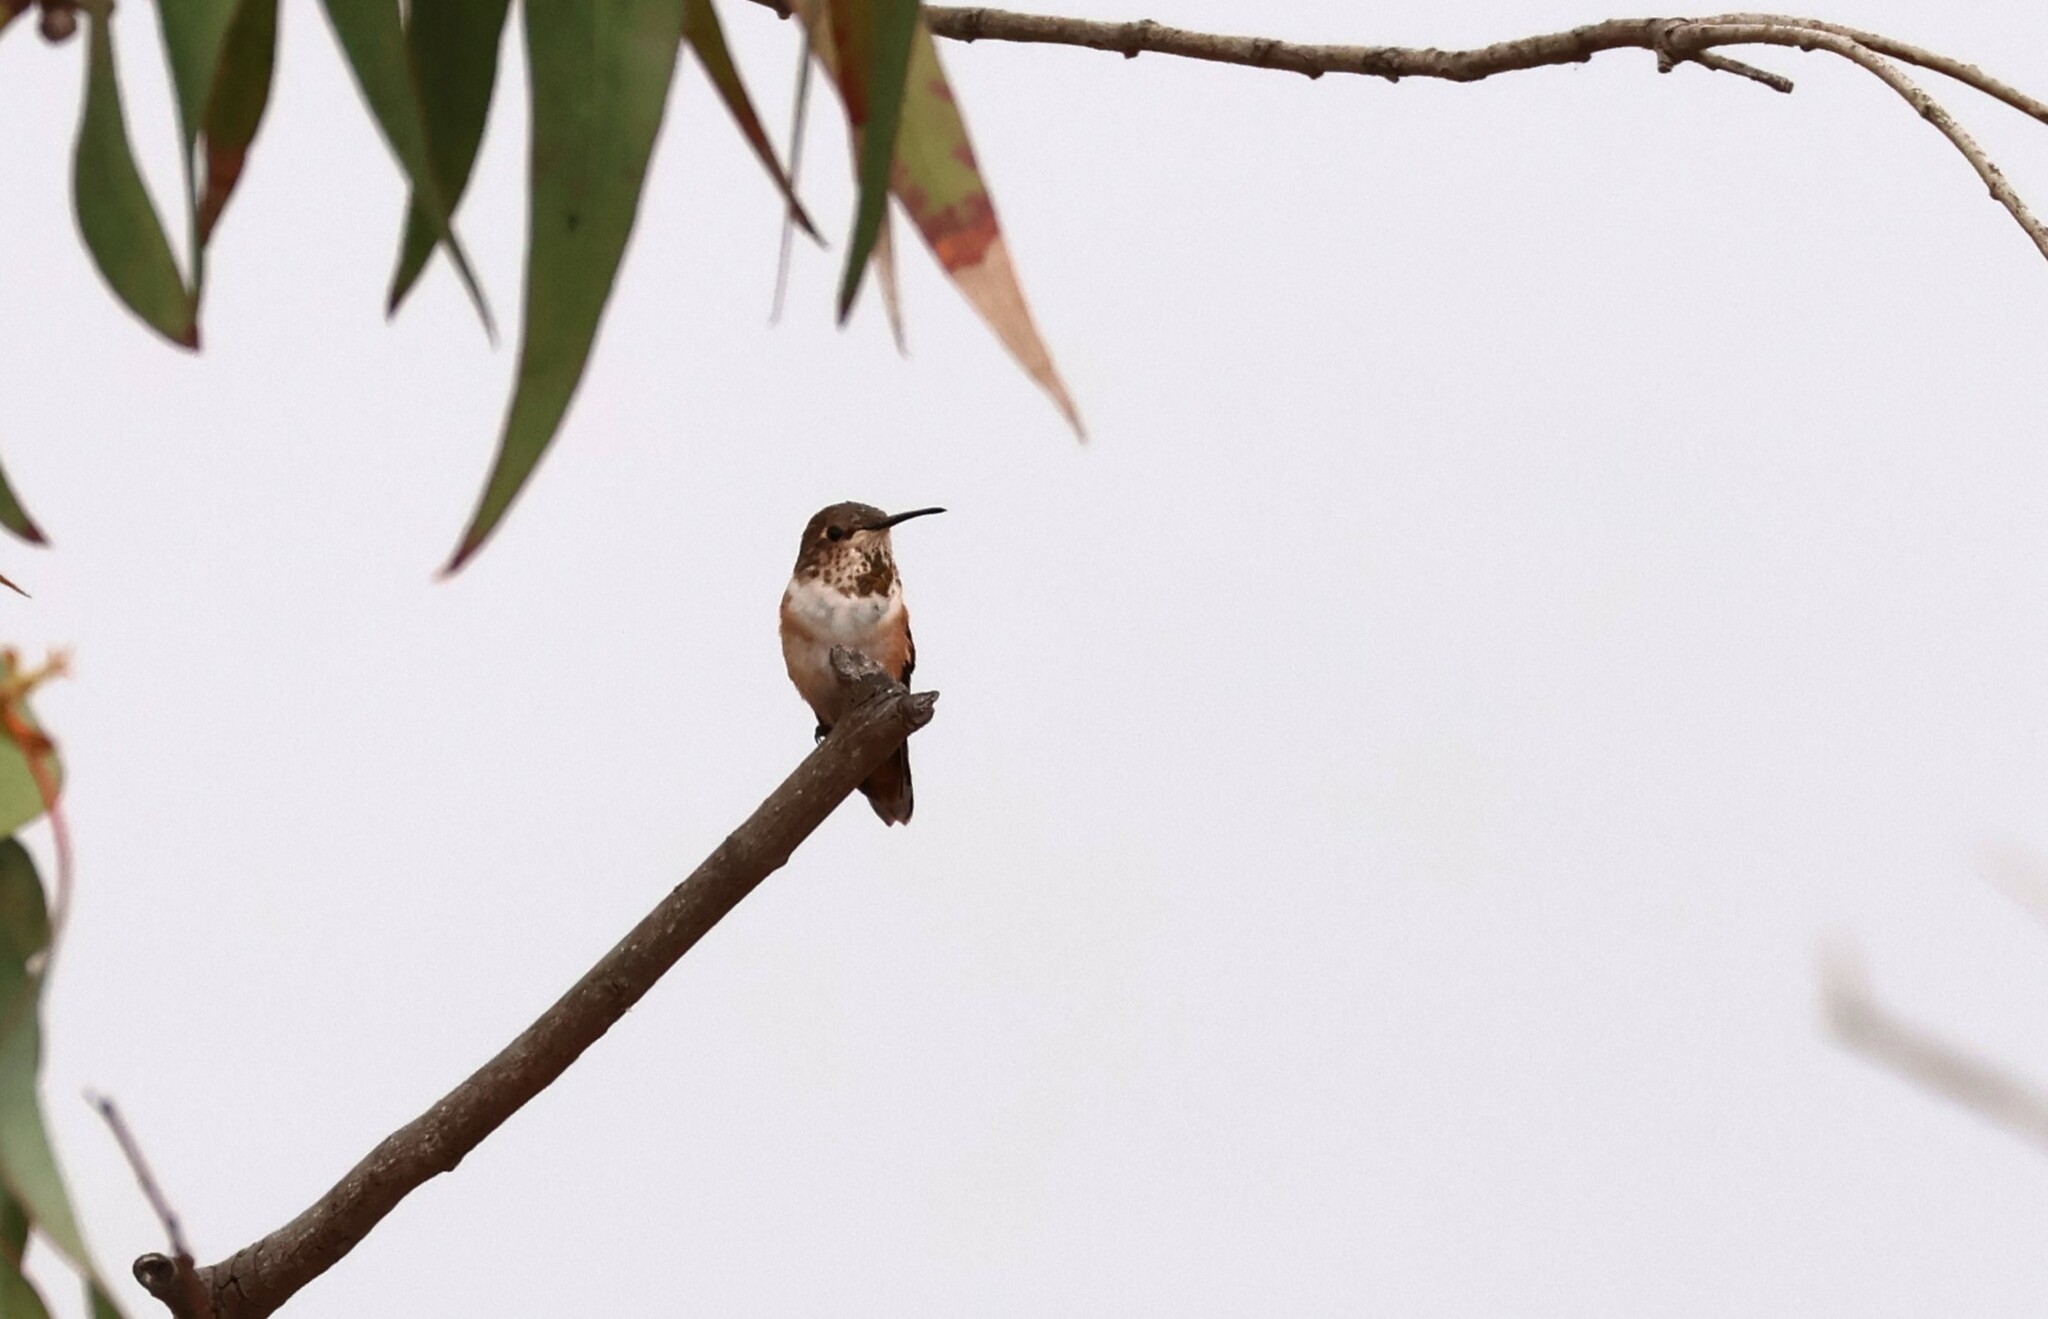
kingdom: Animalia
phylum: Chordata
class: Aves
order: Apodiformes
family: Trochilidae
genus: Selasphorus
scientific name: Selasphorus
